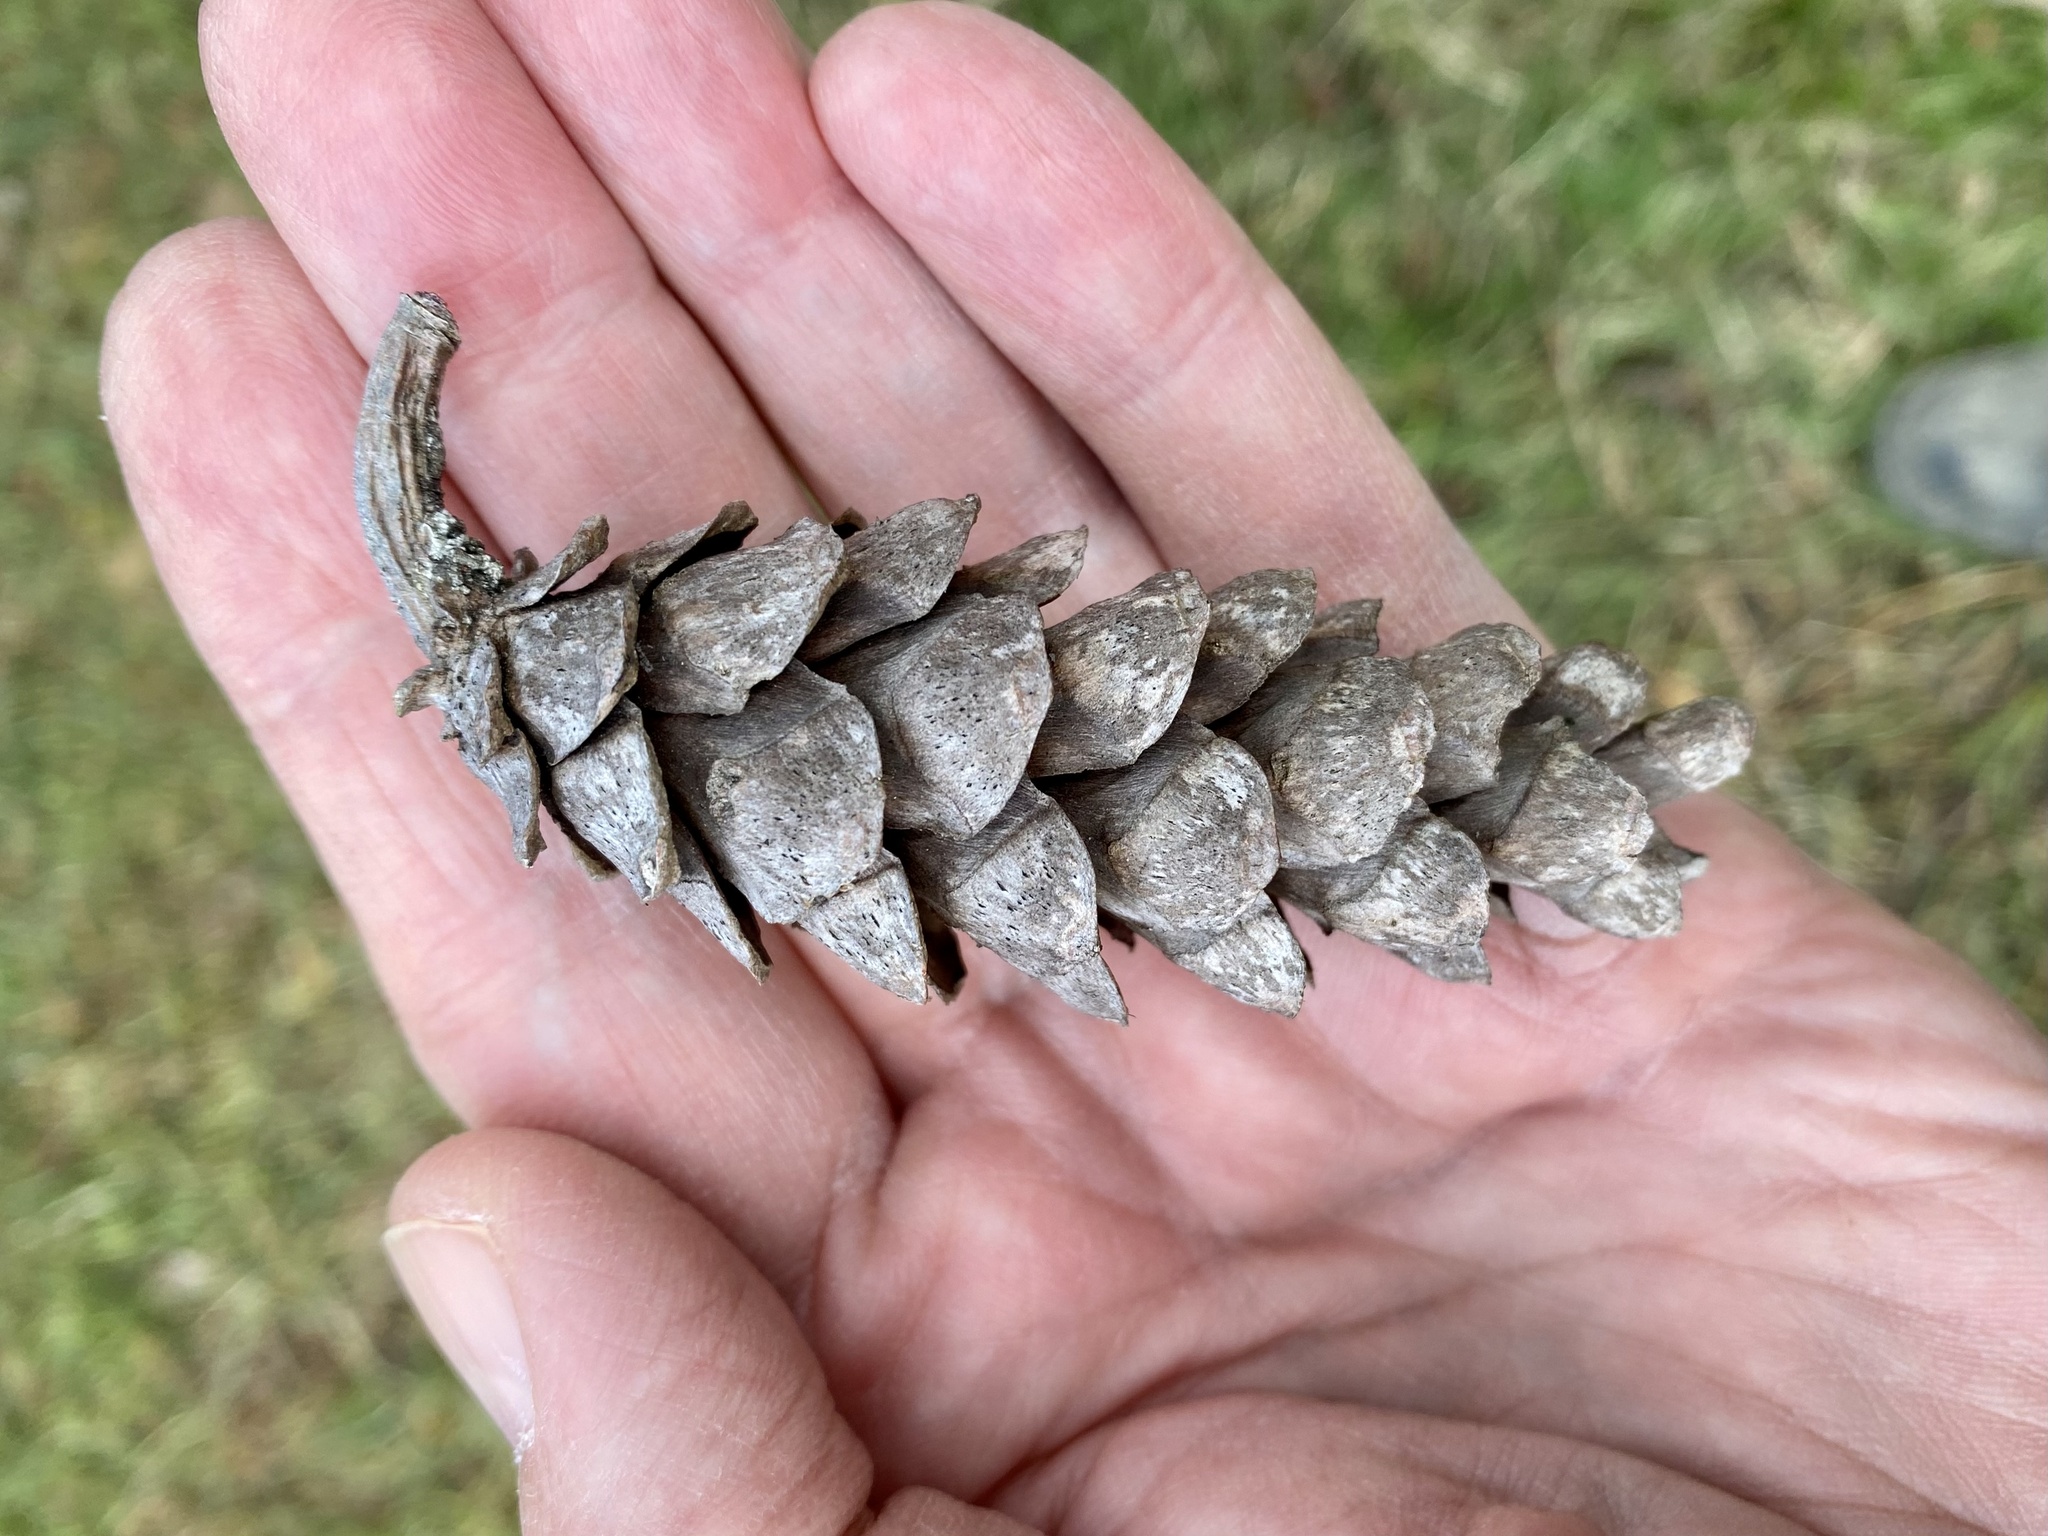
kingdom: Plantae
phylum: Tracheophyta
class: Pinopsida
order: Pinales
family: Pinaceae
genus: Pinus
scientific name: Pinus strobus
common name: Weymouth pine
